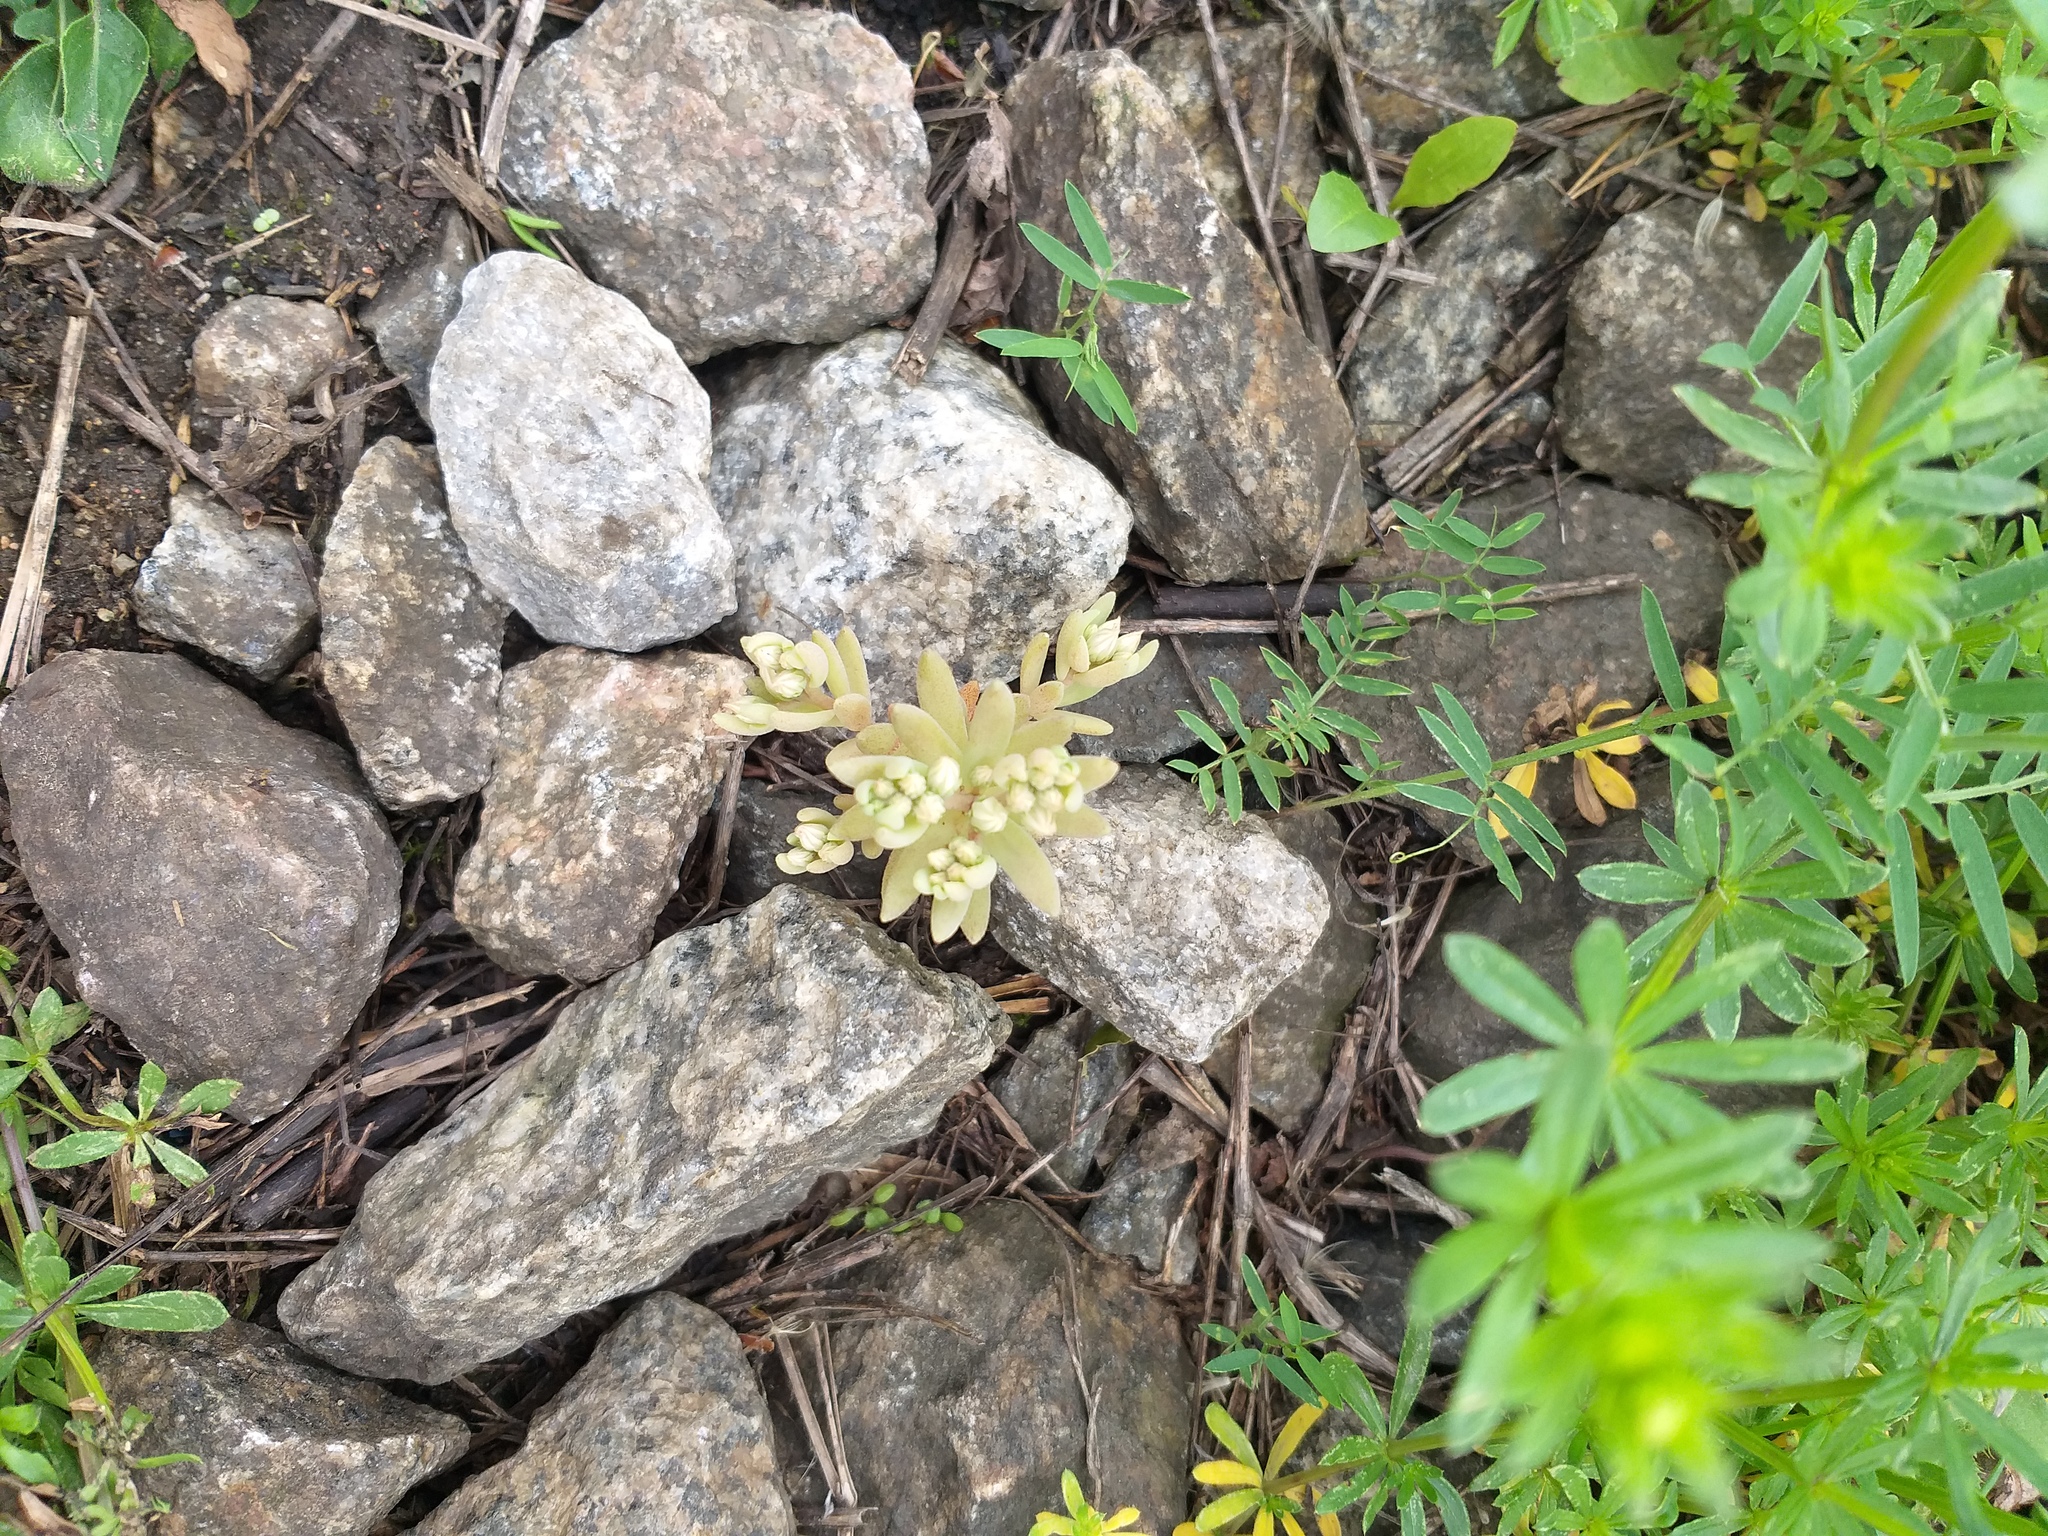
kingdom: Plantae
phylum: Tracheophyta
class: Magnoliopsida
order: Saxifragales
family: Crassulaceae
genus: Sedum
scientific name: Sedum hispanicum
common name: Spanish stonecrop
